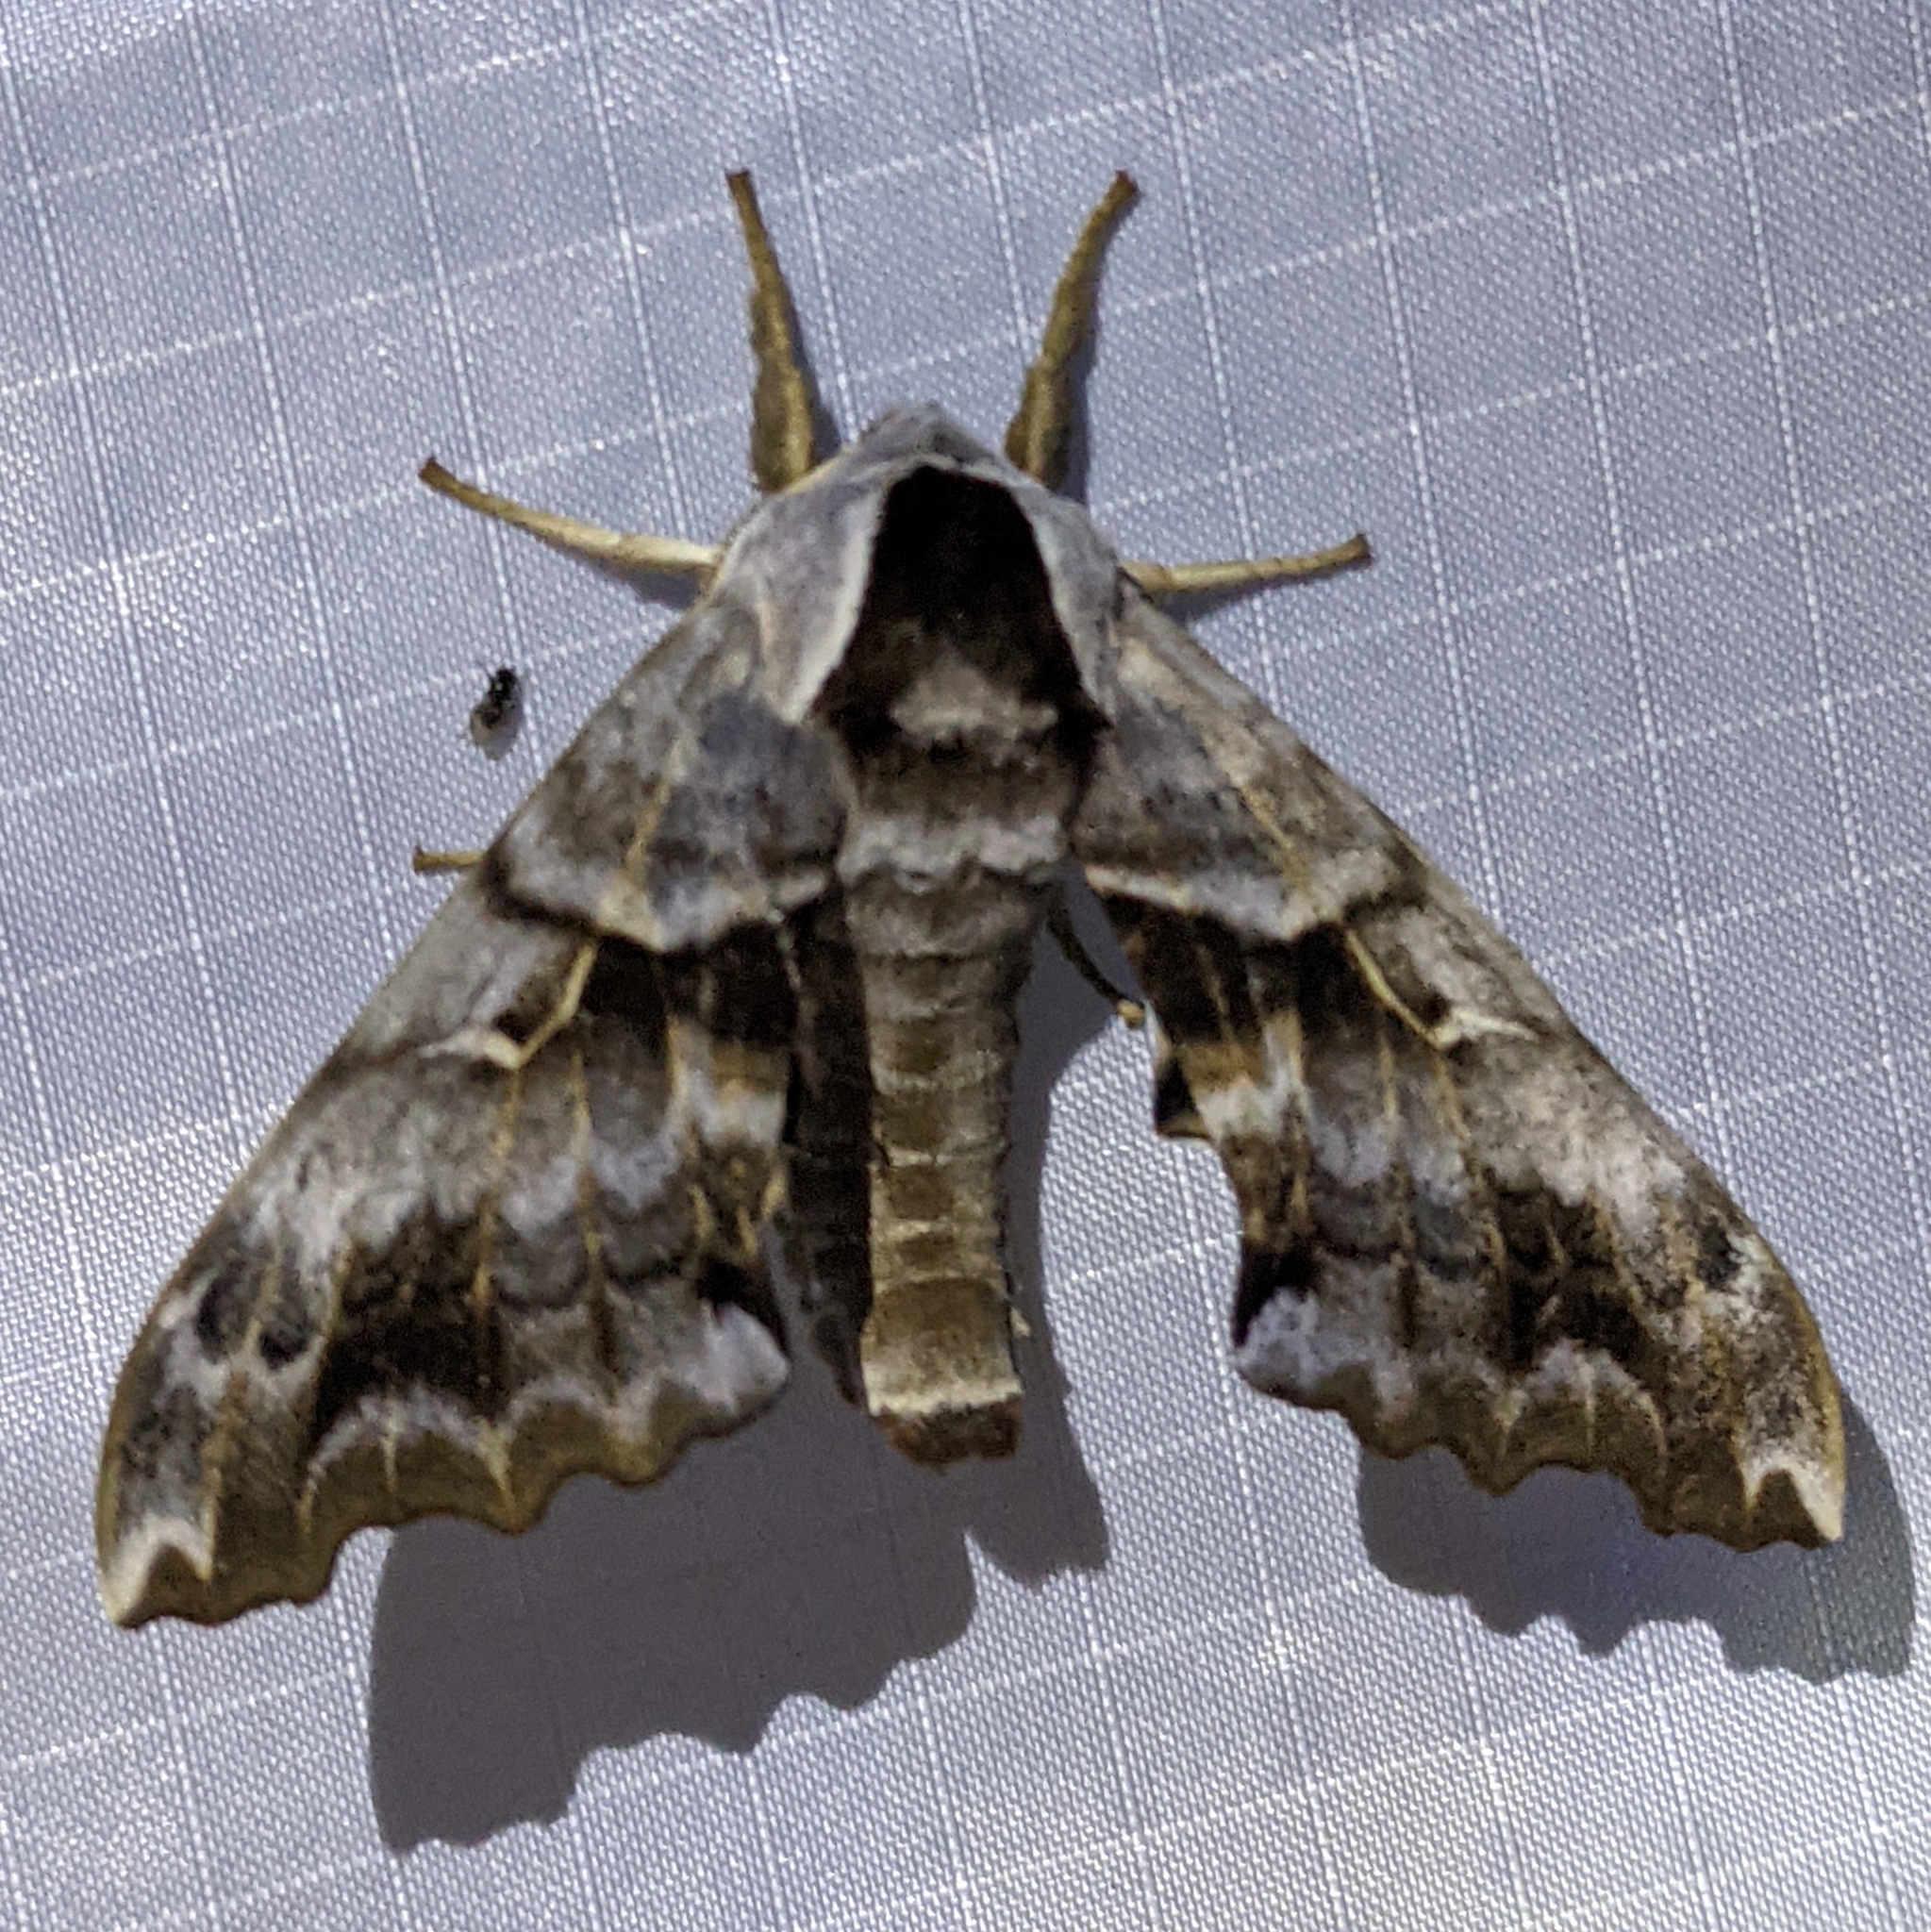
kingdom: Animalia
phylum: Arthropoda
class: Insecta
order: Lepidoptera
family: Sphingidae
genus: Smerinthus
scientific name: Smerinthus cerisyi
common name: Cerisy's sphinx moth
